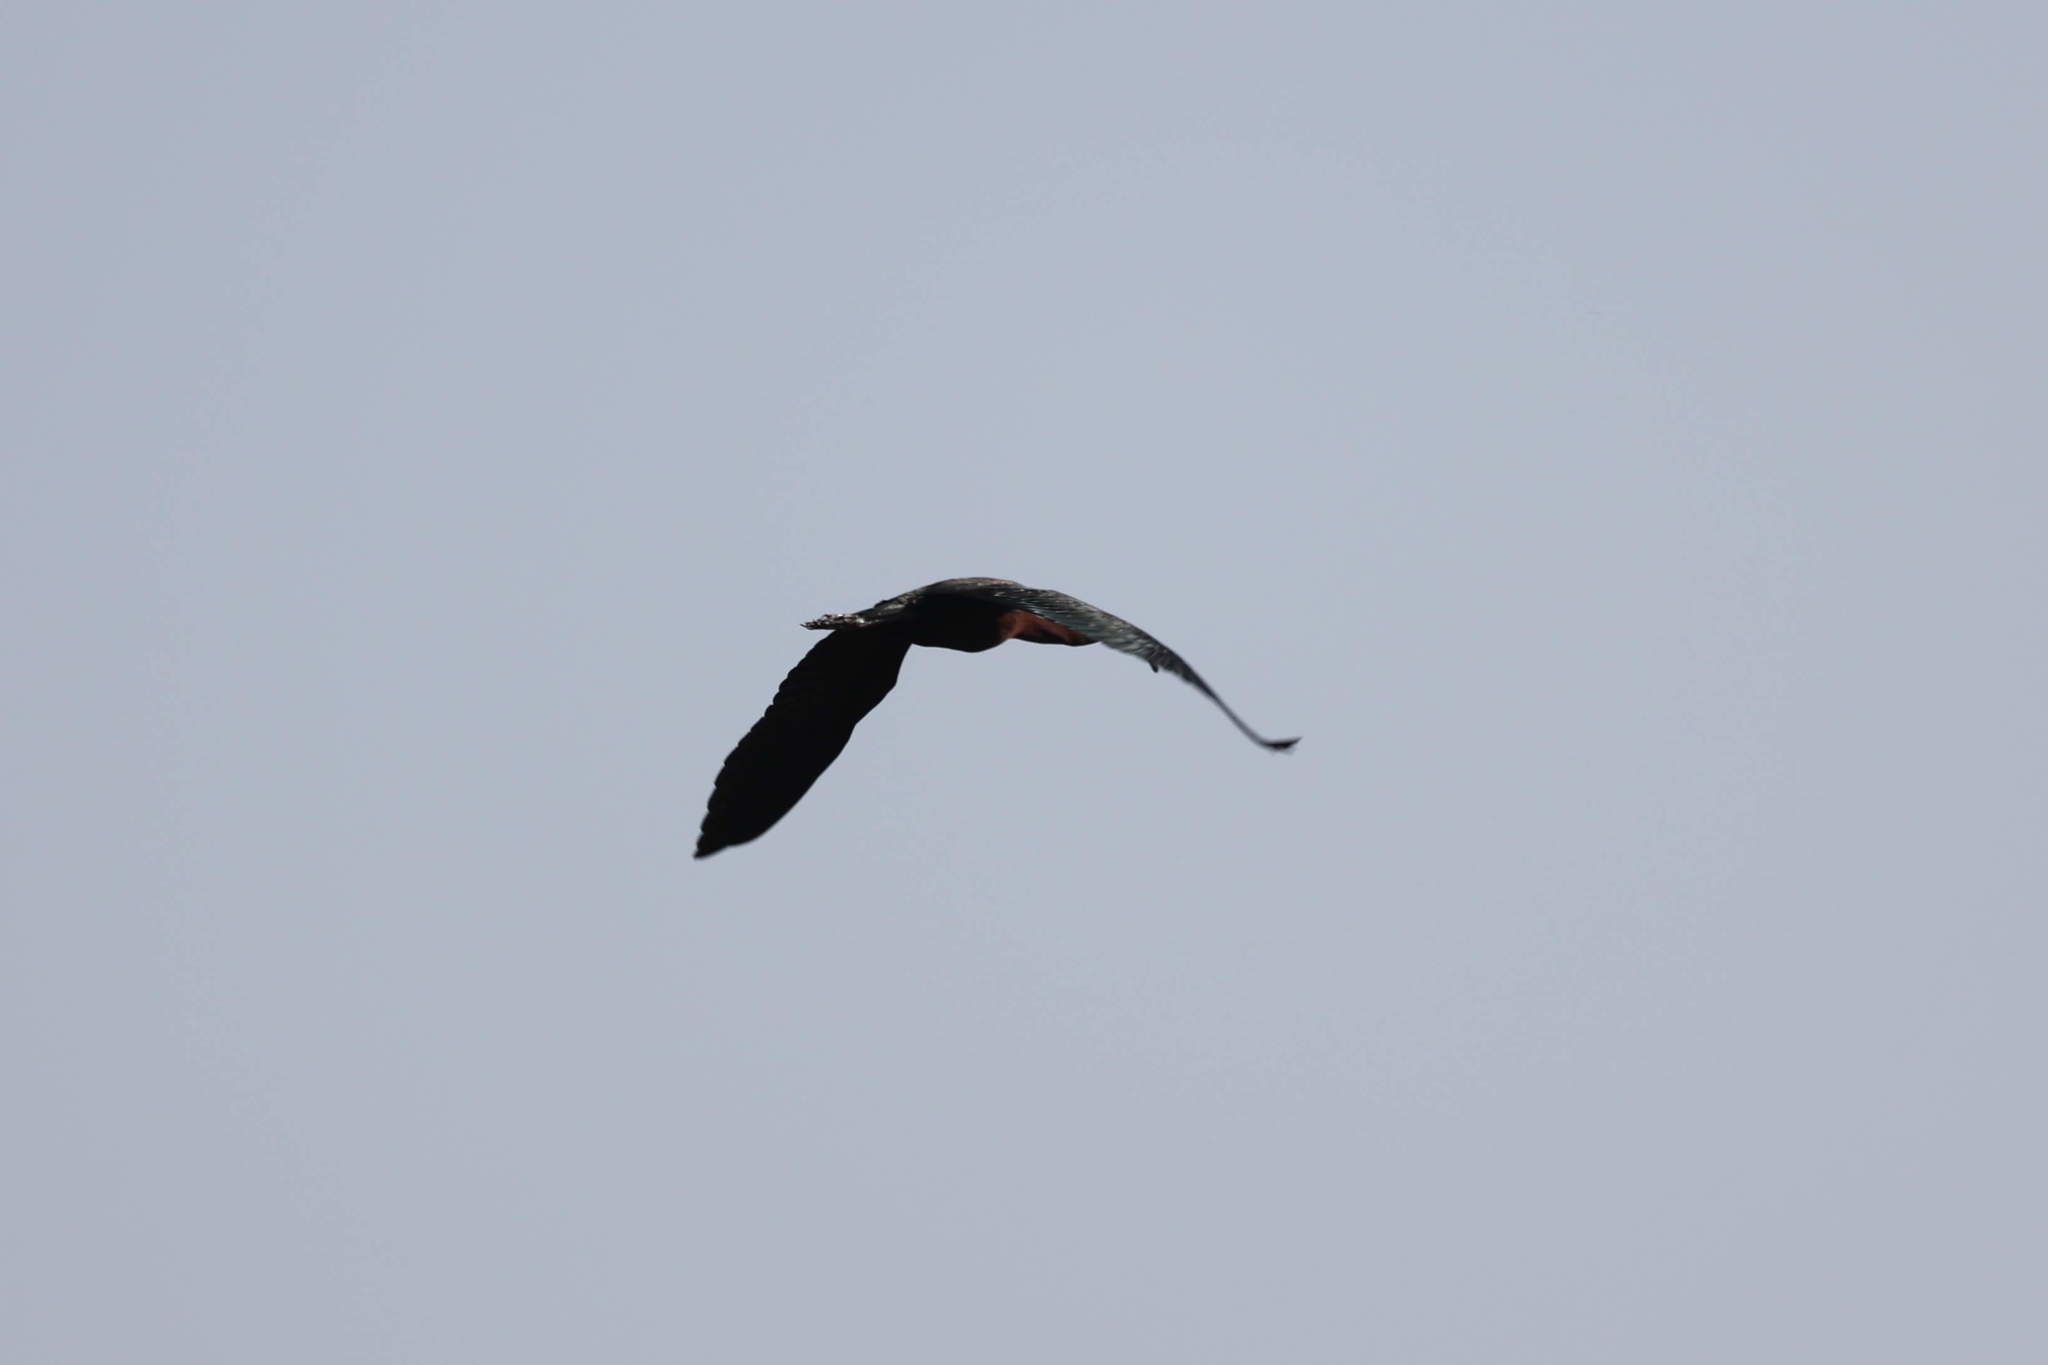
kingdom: Animalia
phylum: Chordata
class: Aves
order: Pelecaniformes
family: Threskiornithidae
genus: Plegadis
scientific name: Plegadis falcinellus
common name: Glossy ibis
